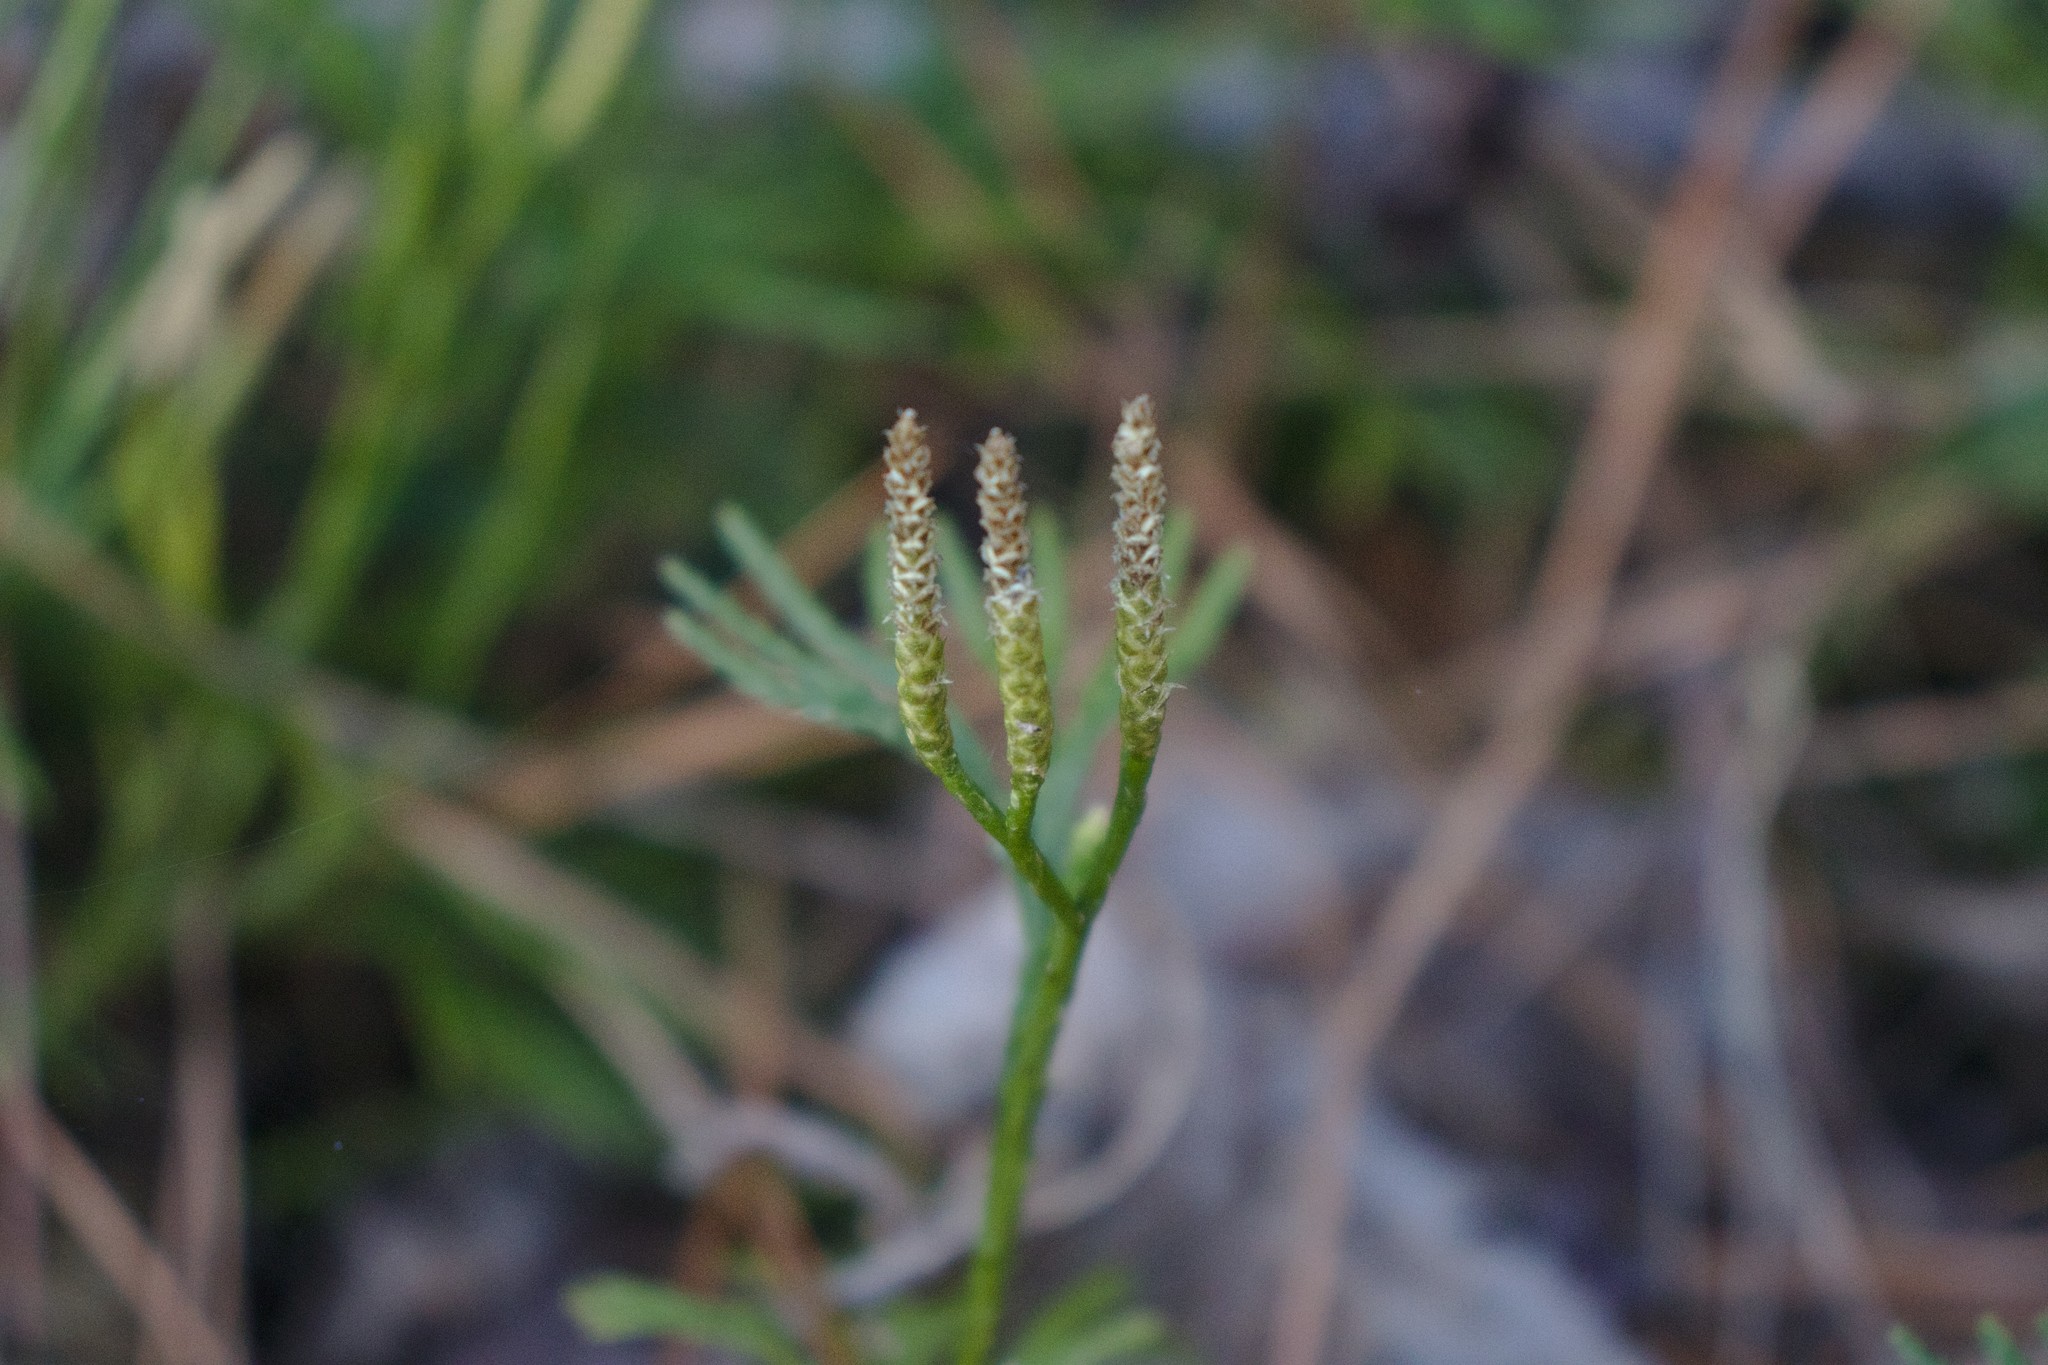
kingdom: Plantae
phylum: Tracheophyta
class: Lycopodiopsida
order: Lycopodiales
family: Lycopodiaceae
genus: Diphasiastrum
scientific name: Diphasiastrum digitatum
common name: Southern running-pine
